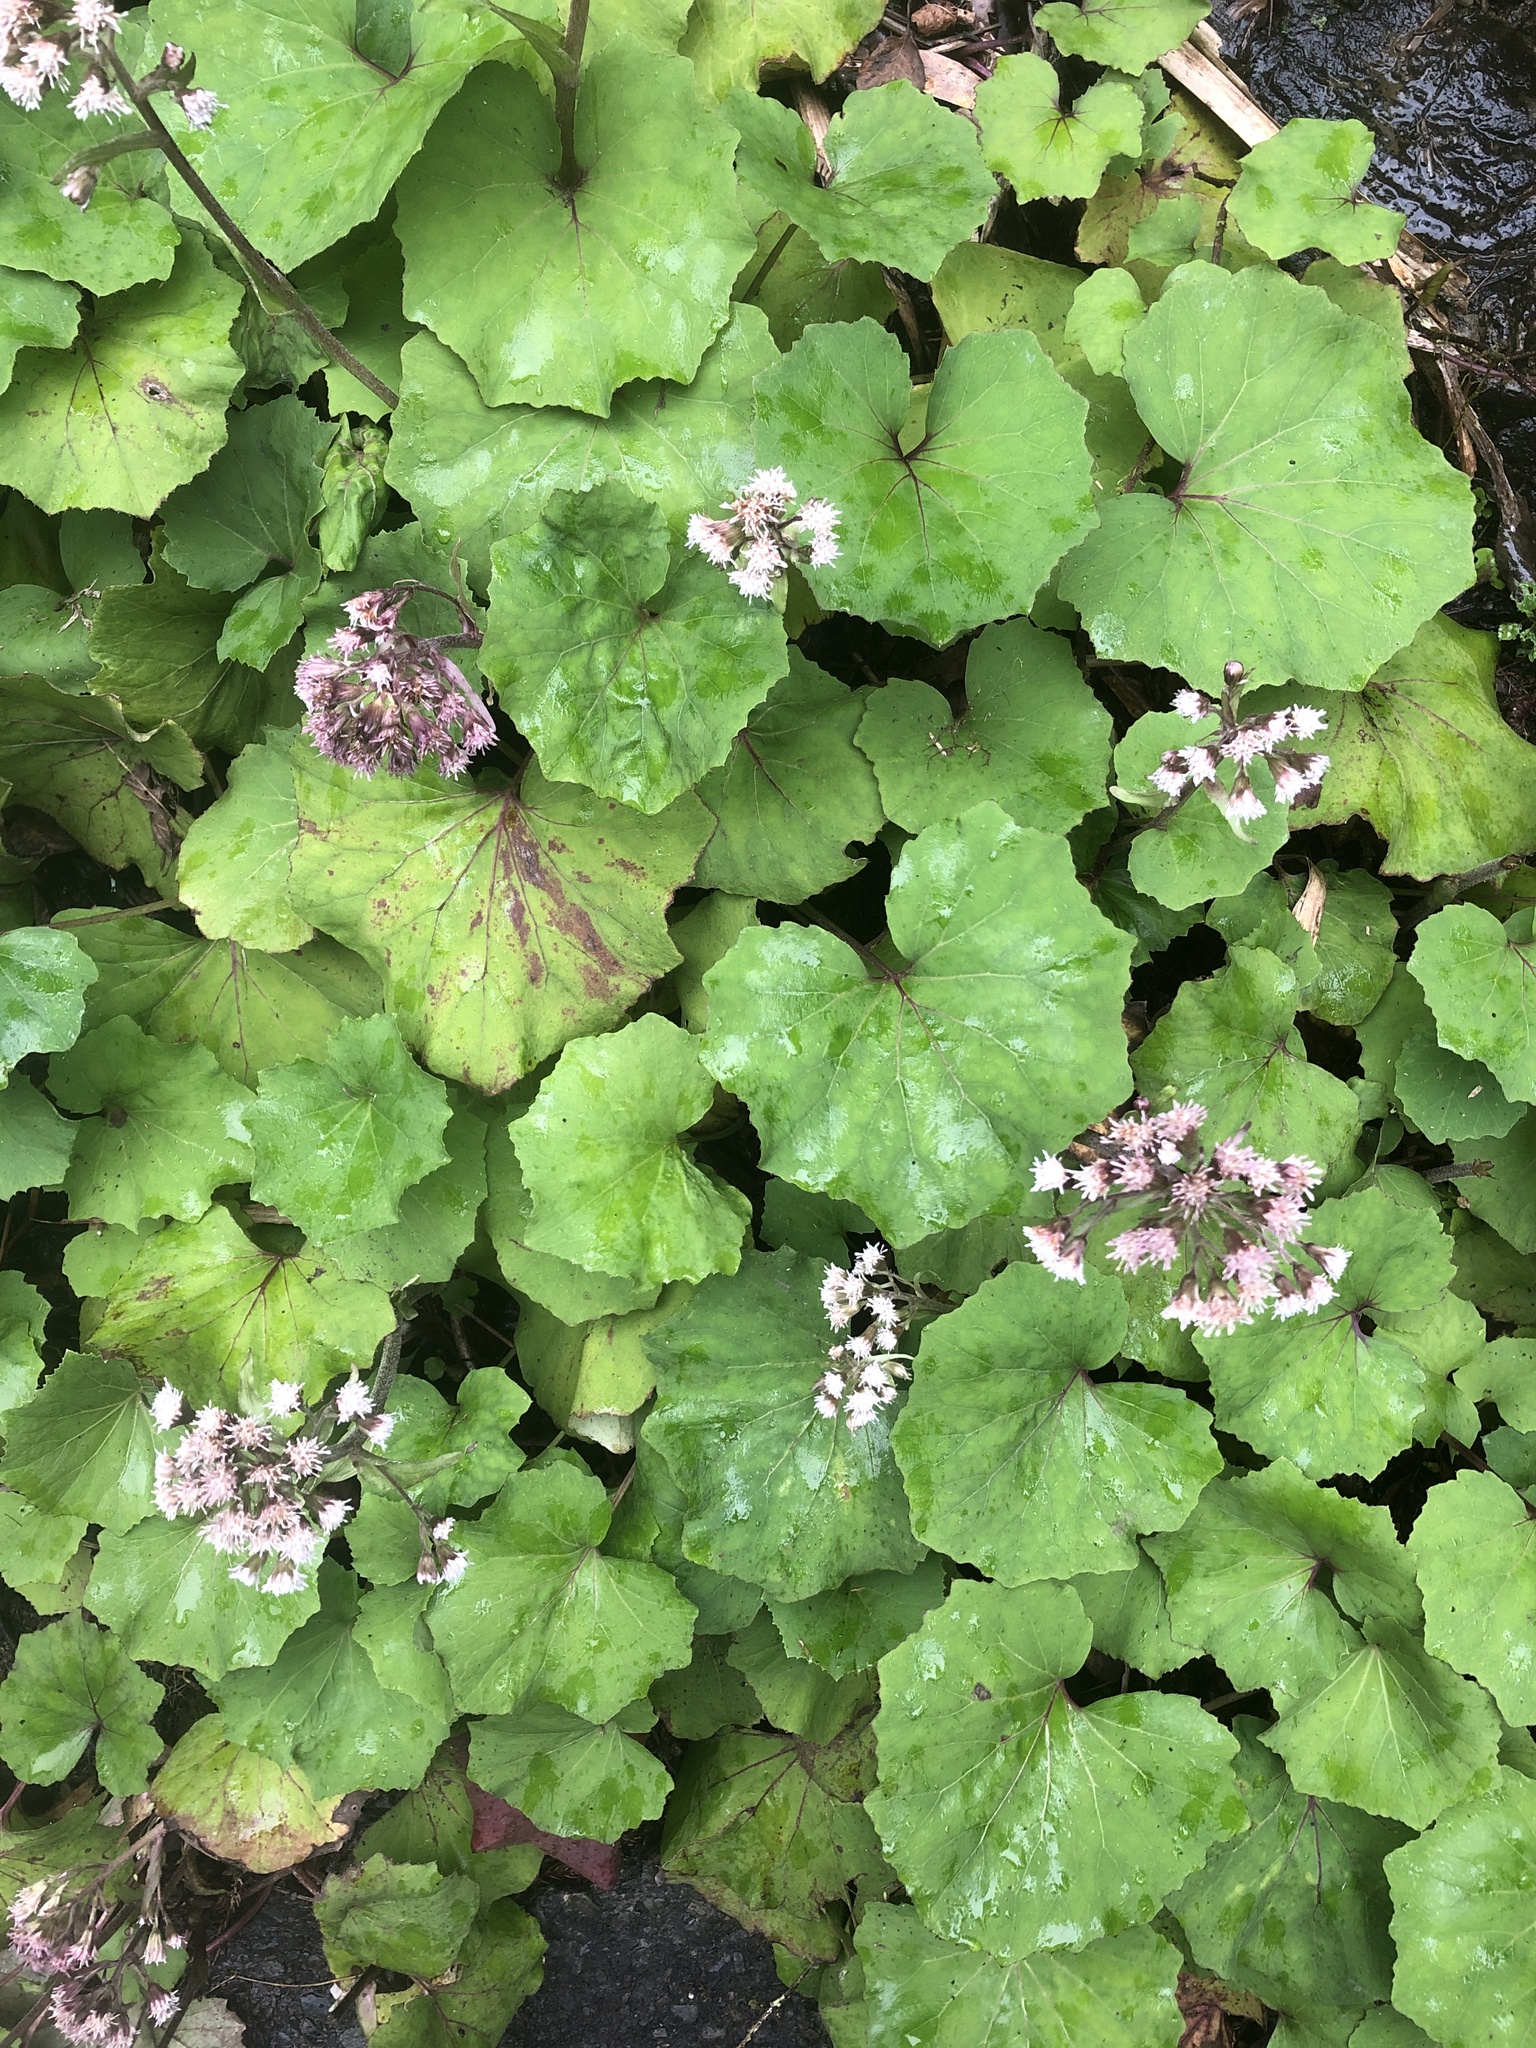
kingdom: Plantae
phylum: Tracheophyta
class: Magnoliopsida
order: Asterales
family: Asteraceae
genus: Petasites
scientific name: Petasites formosanus
